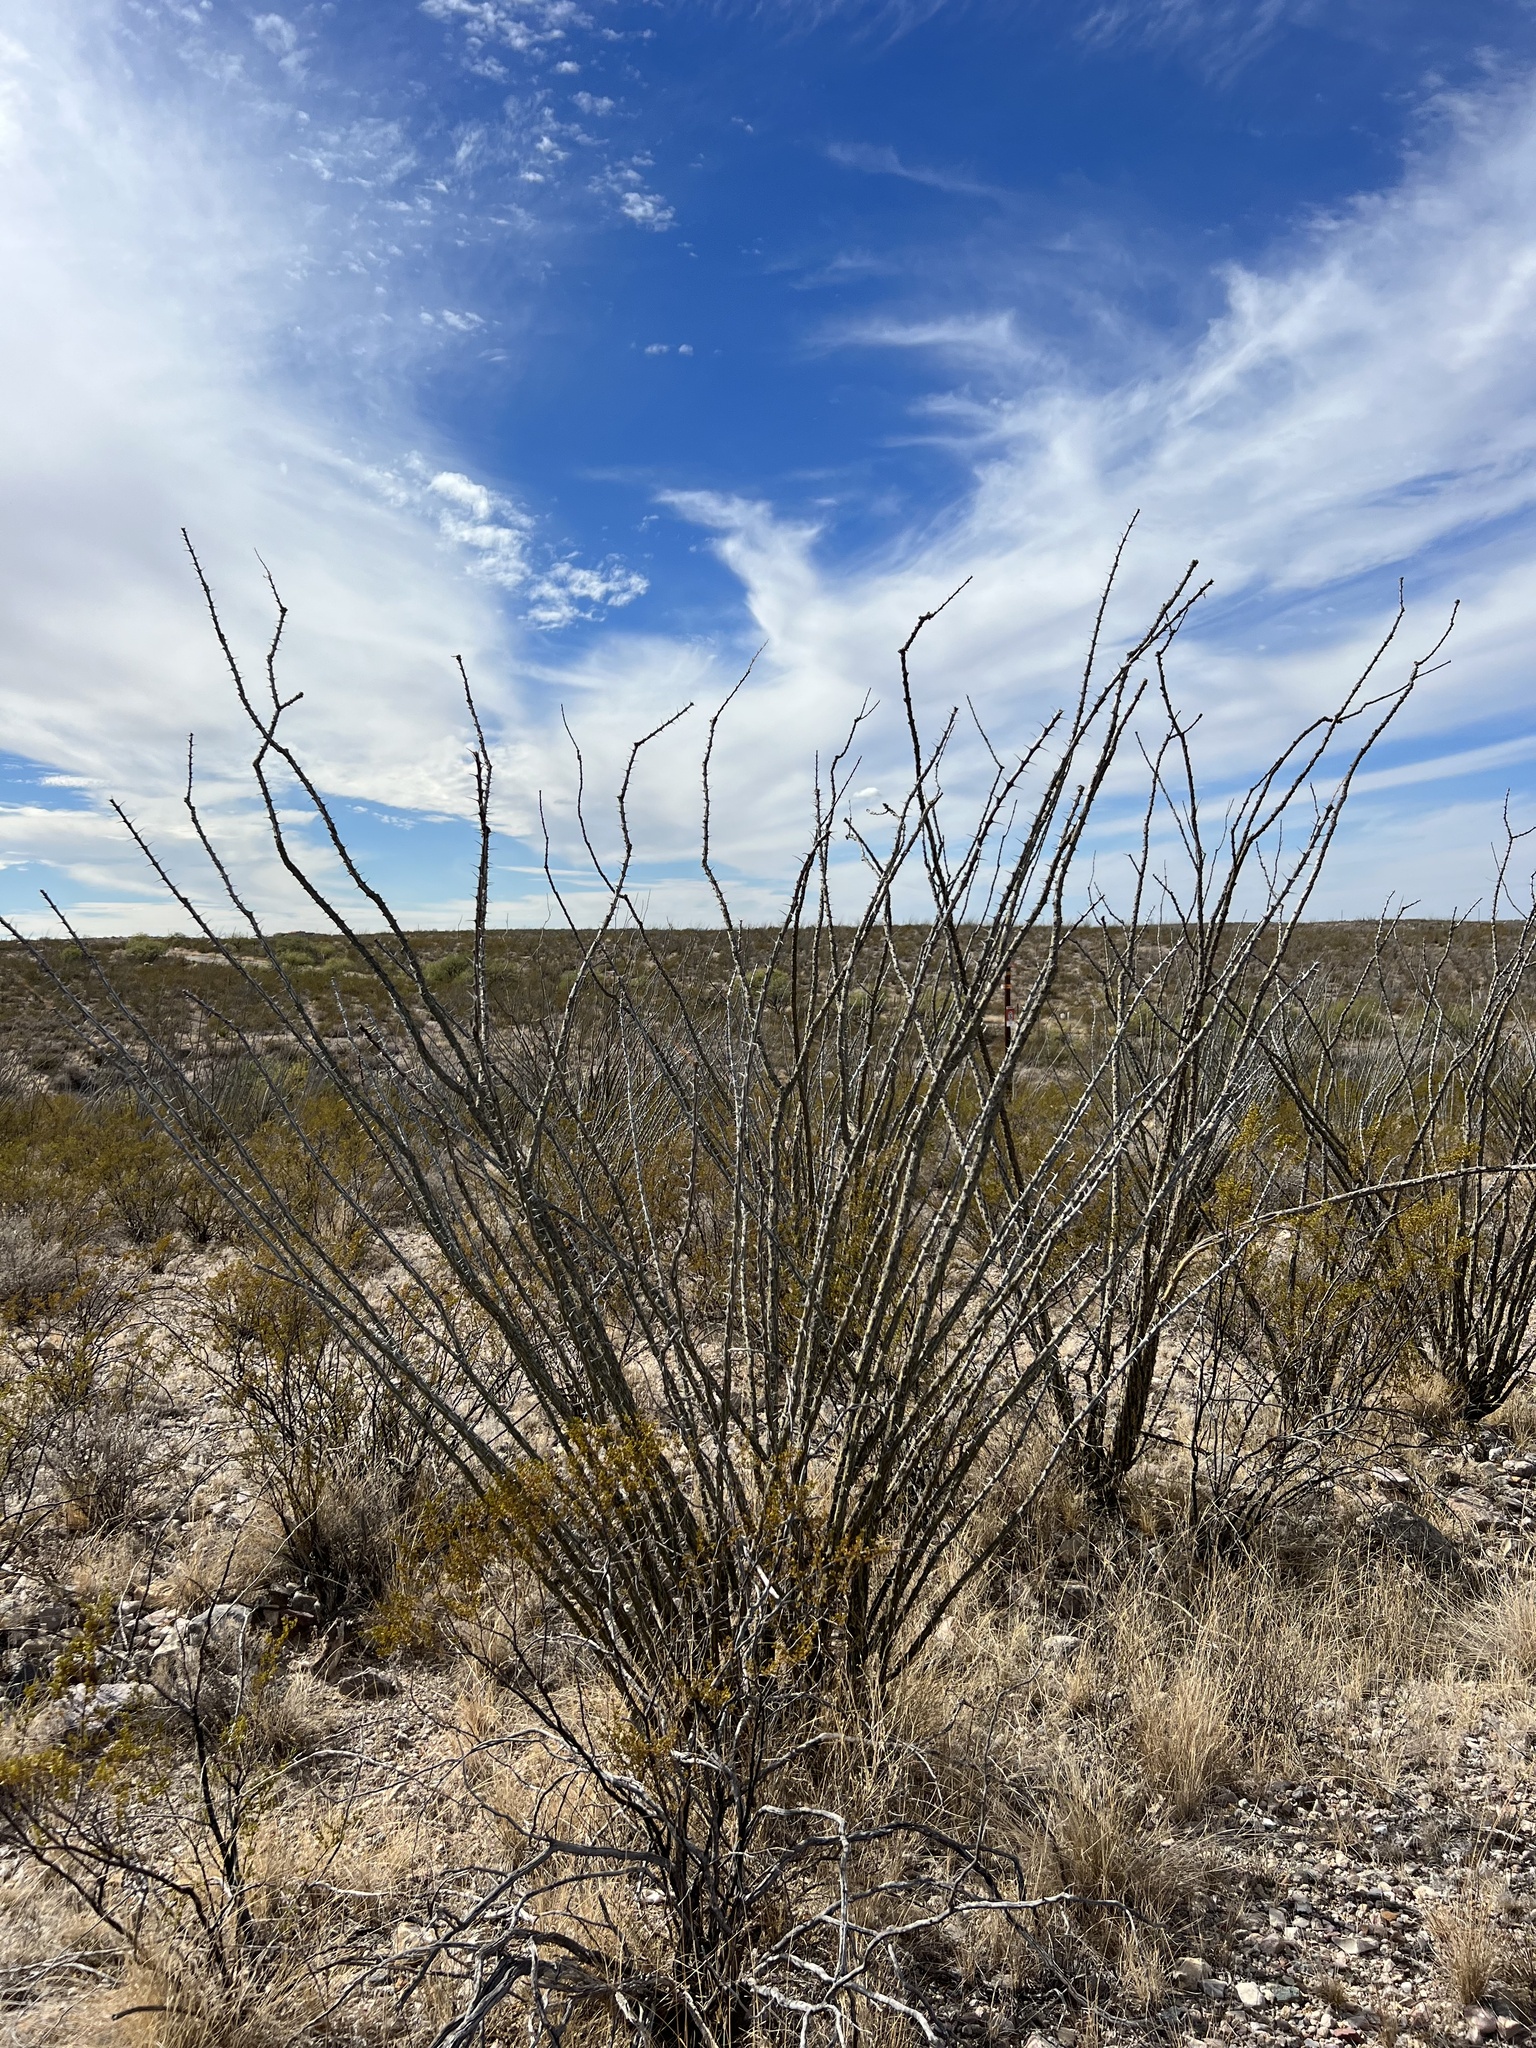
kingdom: Plantae
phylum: Tracheophyta
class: Magnoliopsida
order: Ericales
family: Fouquieriaceae
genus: Fouquieria
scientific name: Fouquieria splendens
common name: Vine-cactus
